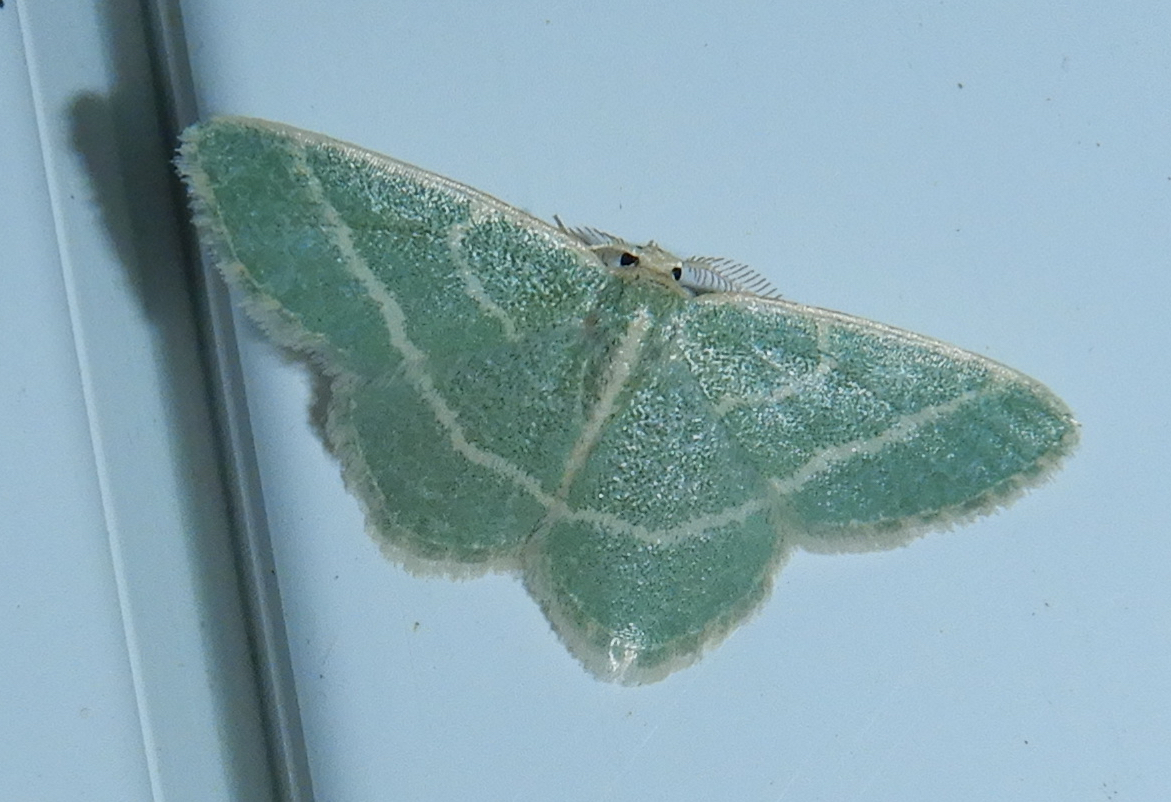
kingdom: Animalia
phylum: Arthropoda
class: Insecta
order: Lepidoptera
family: Geometridae
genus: Chlorochlamys
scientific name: Chlorochlamys chloroleucaria
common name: Blackberry looper
